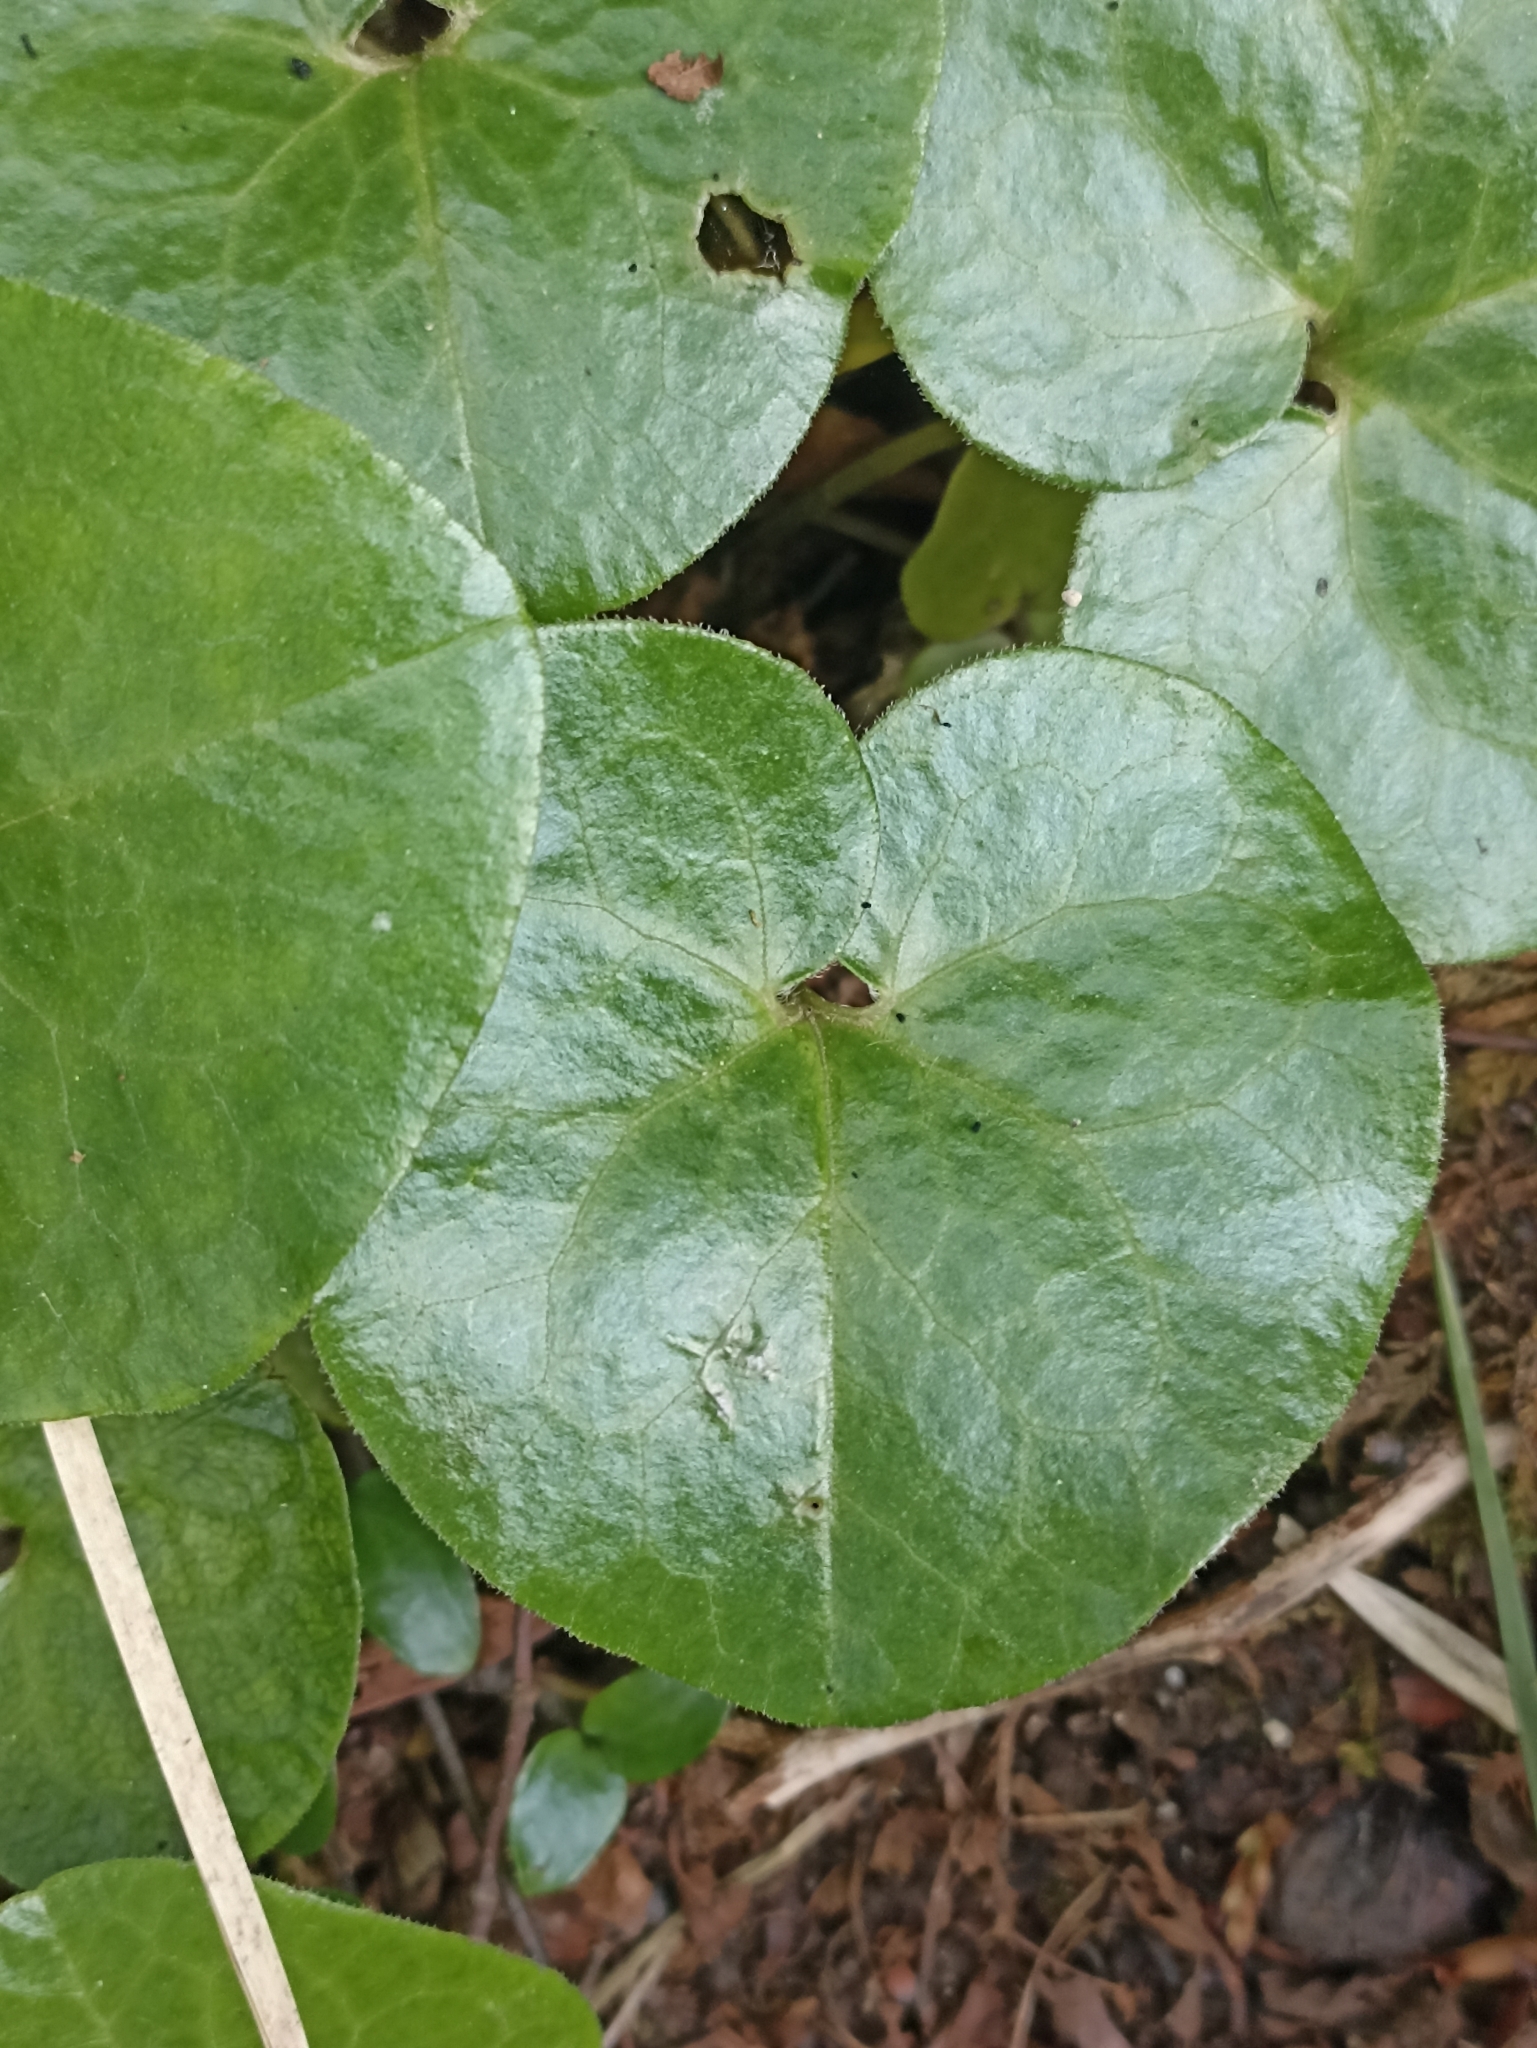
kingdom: Plantae
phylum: Tracheophyta
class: Magnoliopsida
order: Piperales
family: Aristolochiaceae
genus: Asarum
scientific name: Asarum europaeum
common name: Asarabacca
